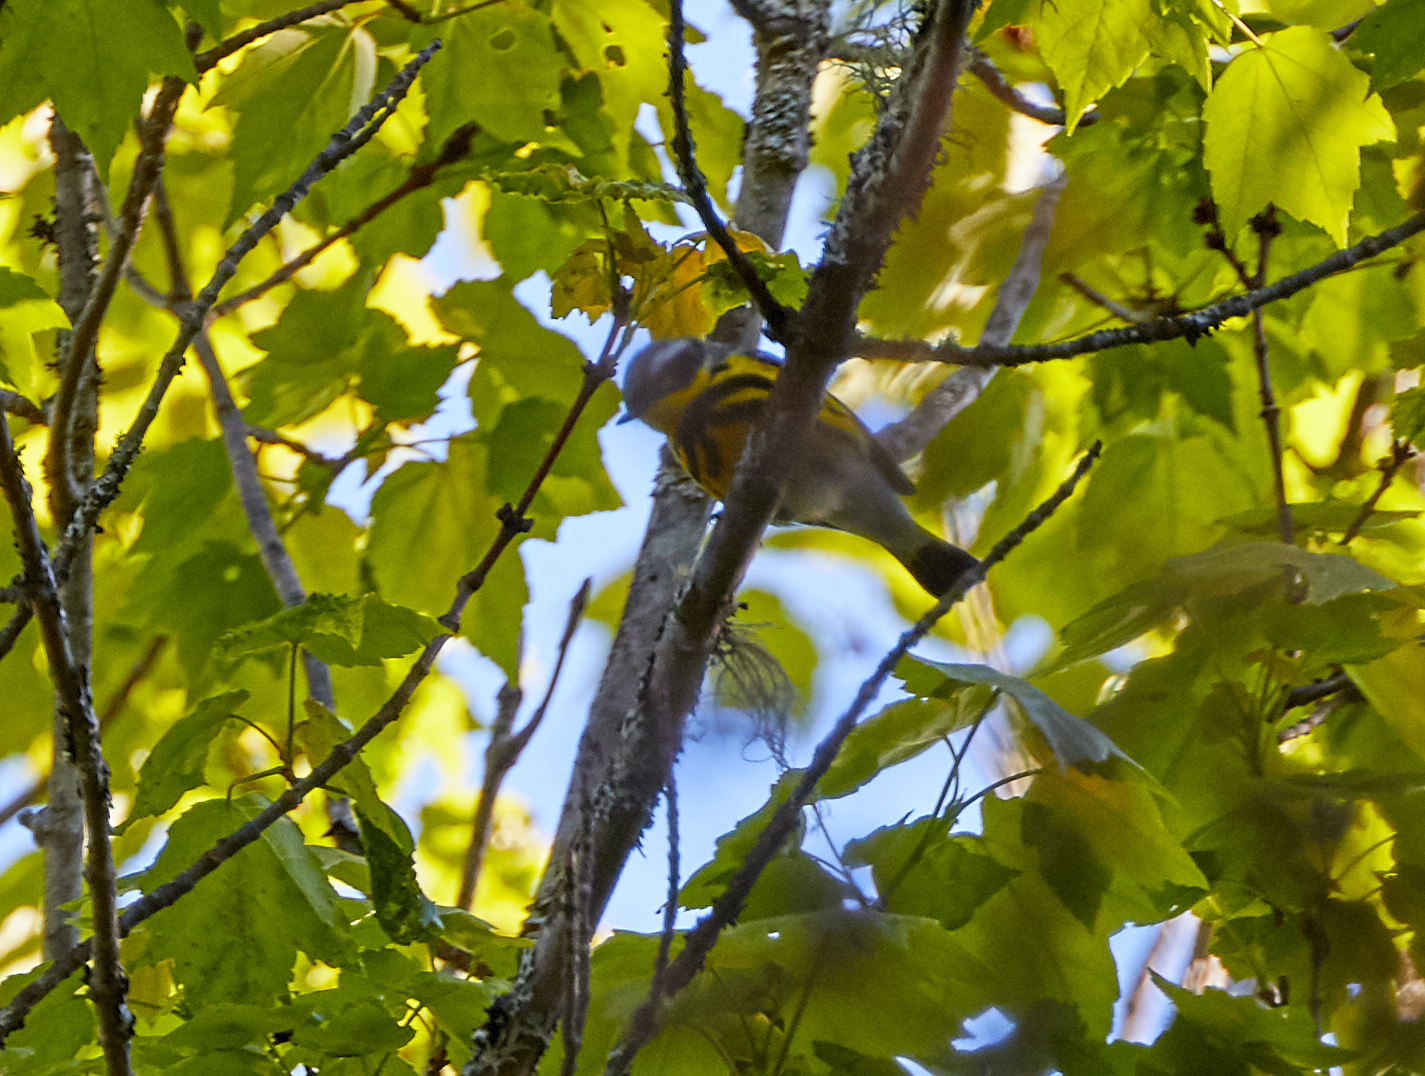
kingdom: Animalia
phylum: Chordata
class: Aves
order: Passeriformes
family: Parulidae
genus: Setophaga
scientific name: Setophaga magnolia
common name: Magnolia warbler
